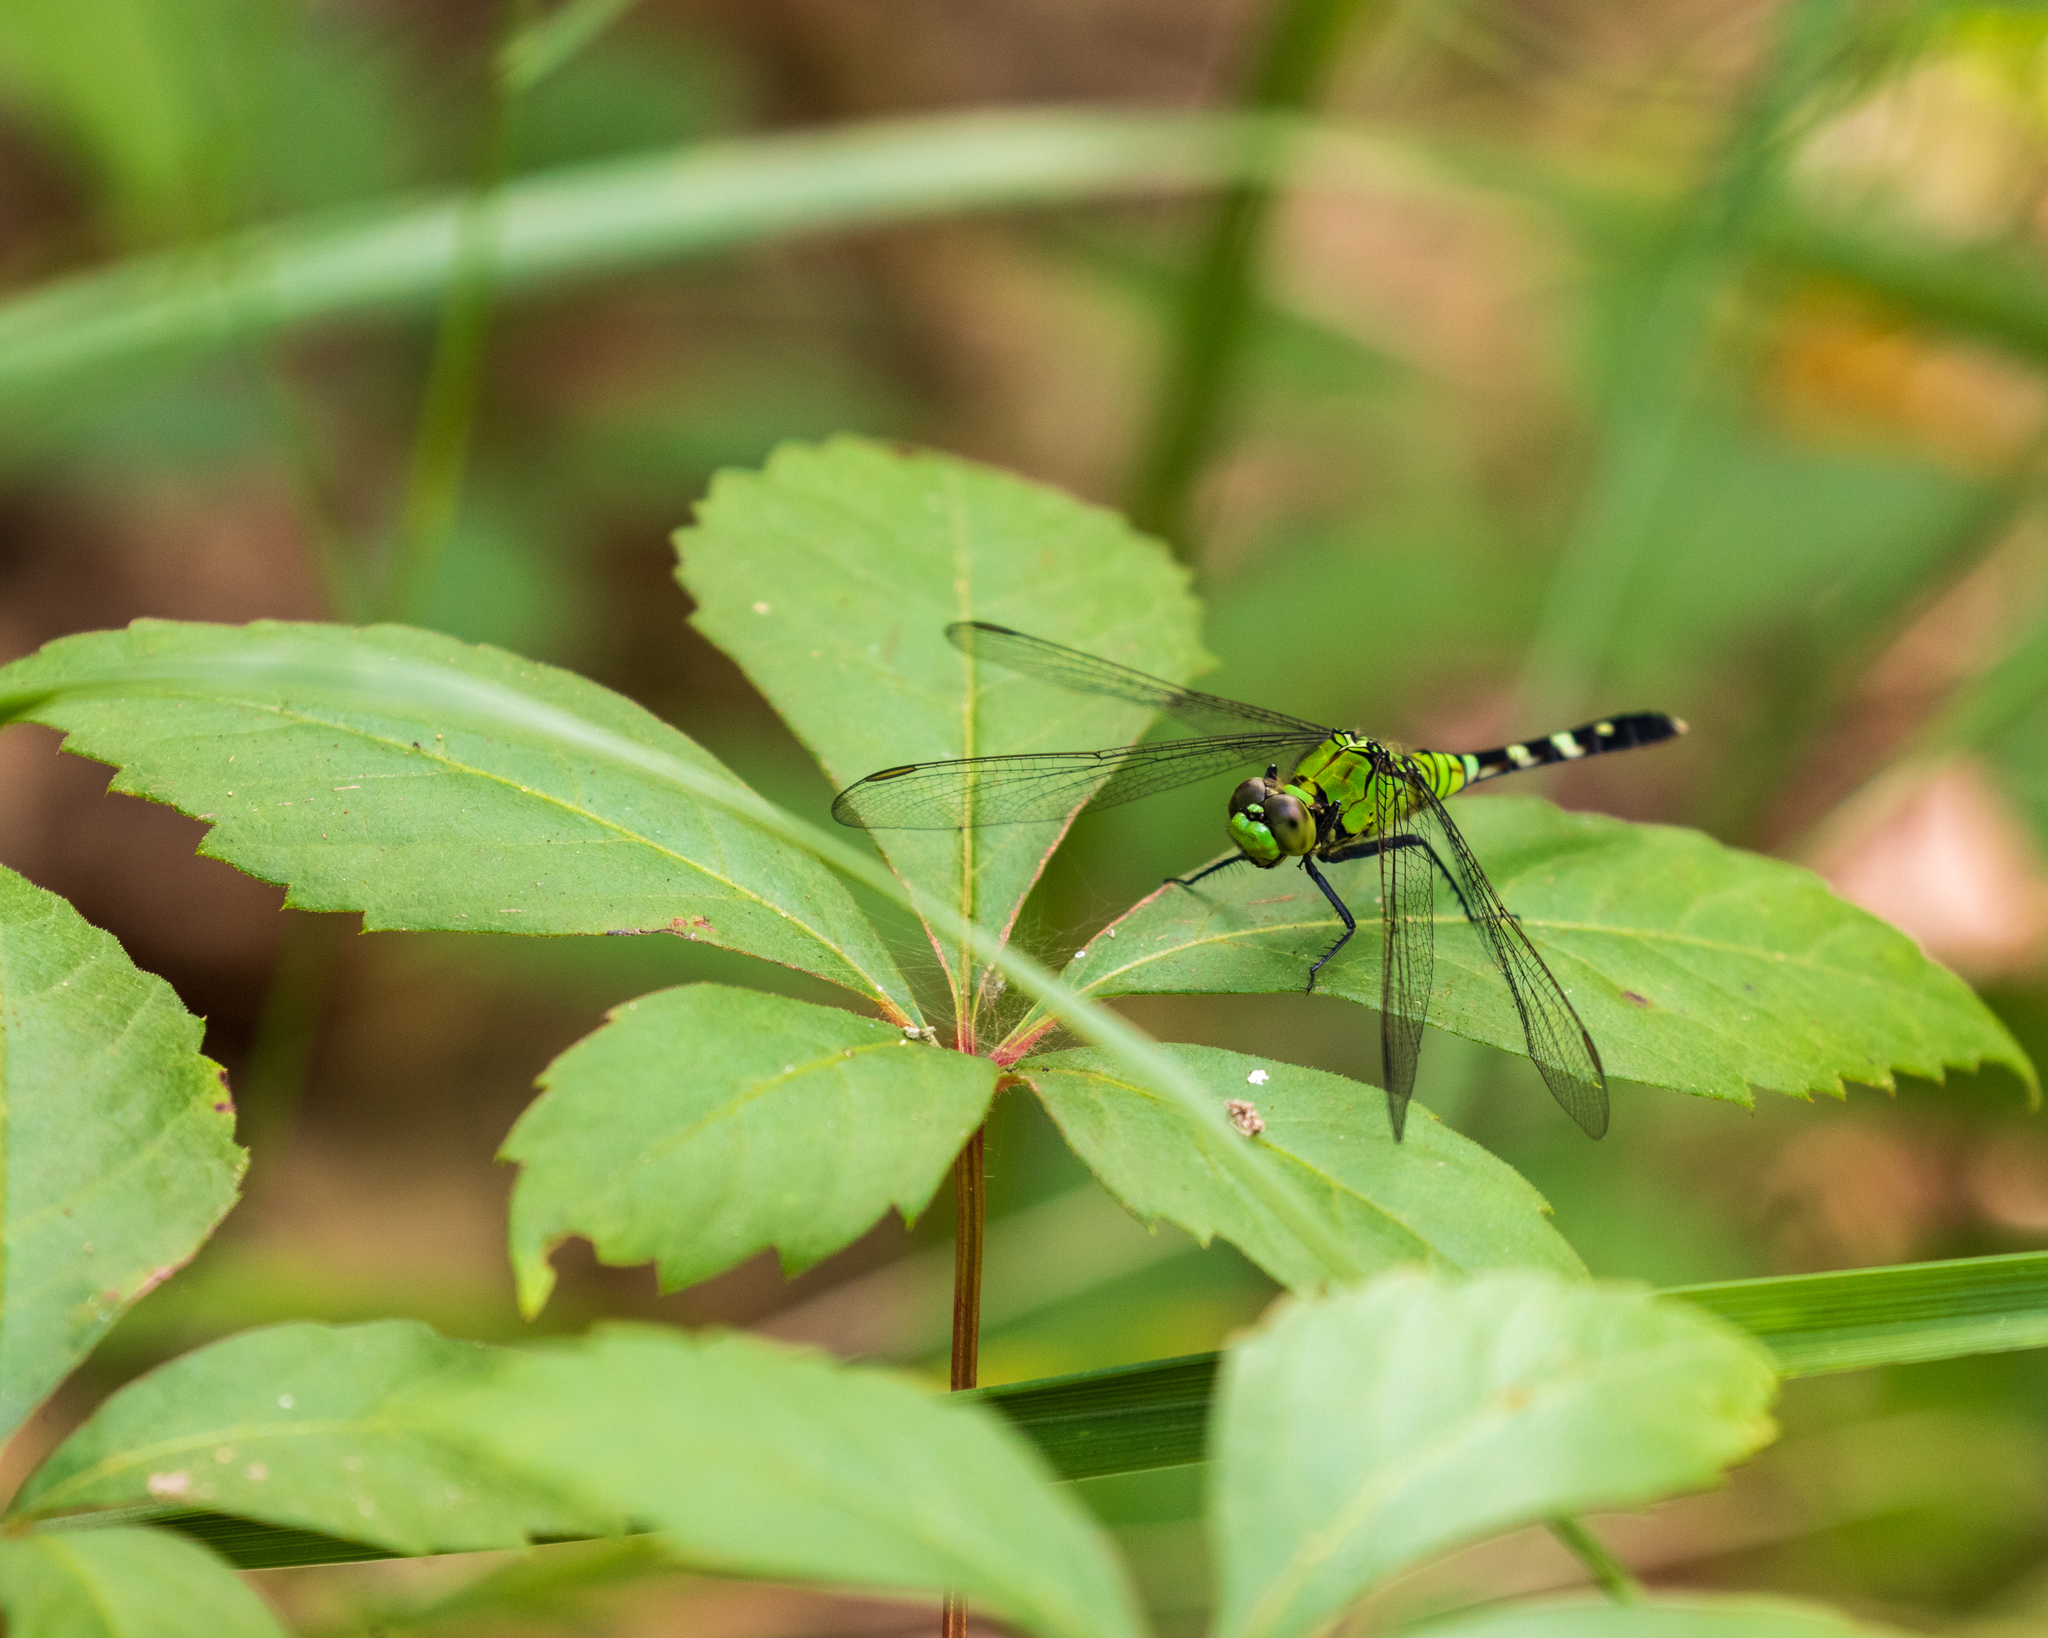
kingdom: Animalia
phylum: Arthropoda
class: Insecta
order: Odonata
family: Libellulidae
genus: Erythemis
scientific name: Erythemis simplicicollis
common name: Eastern pondhawk
